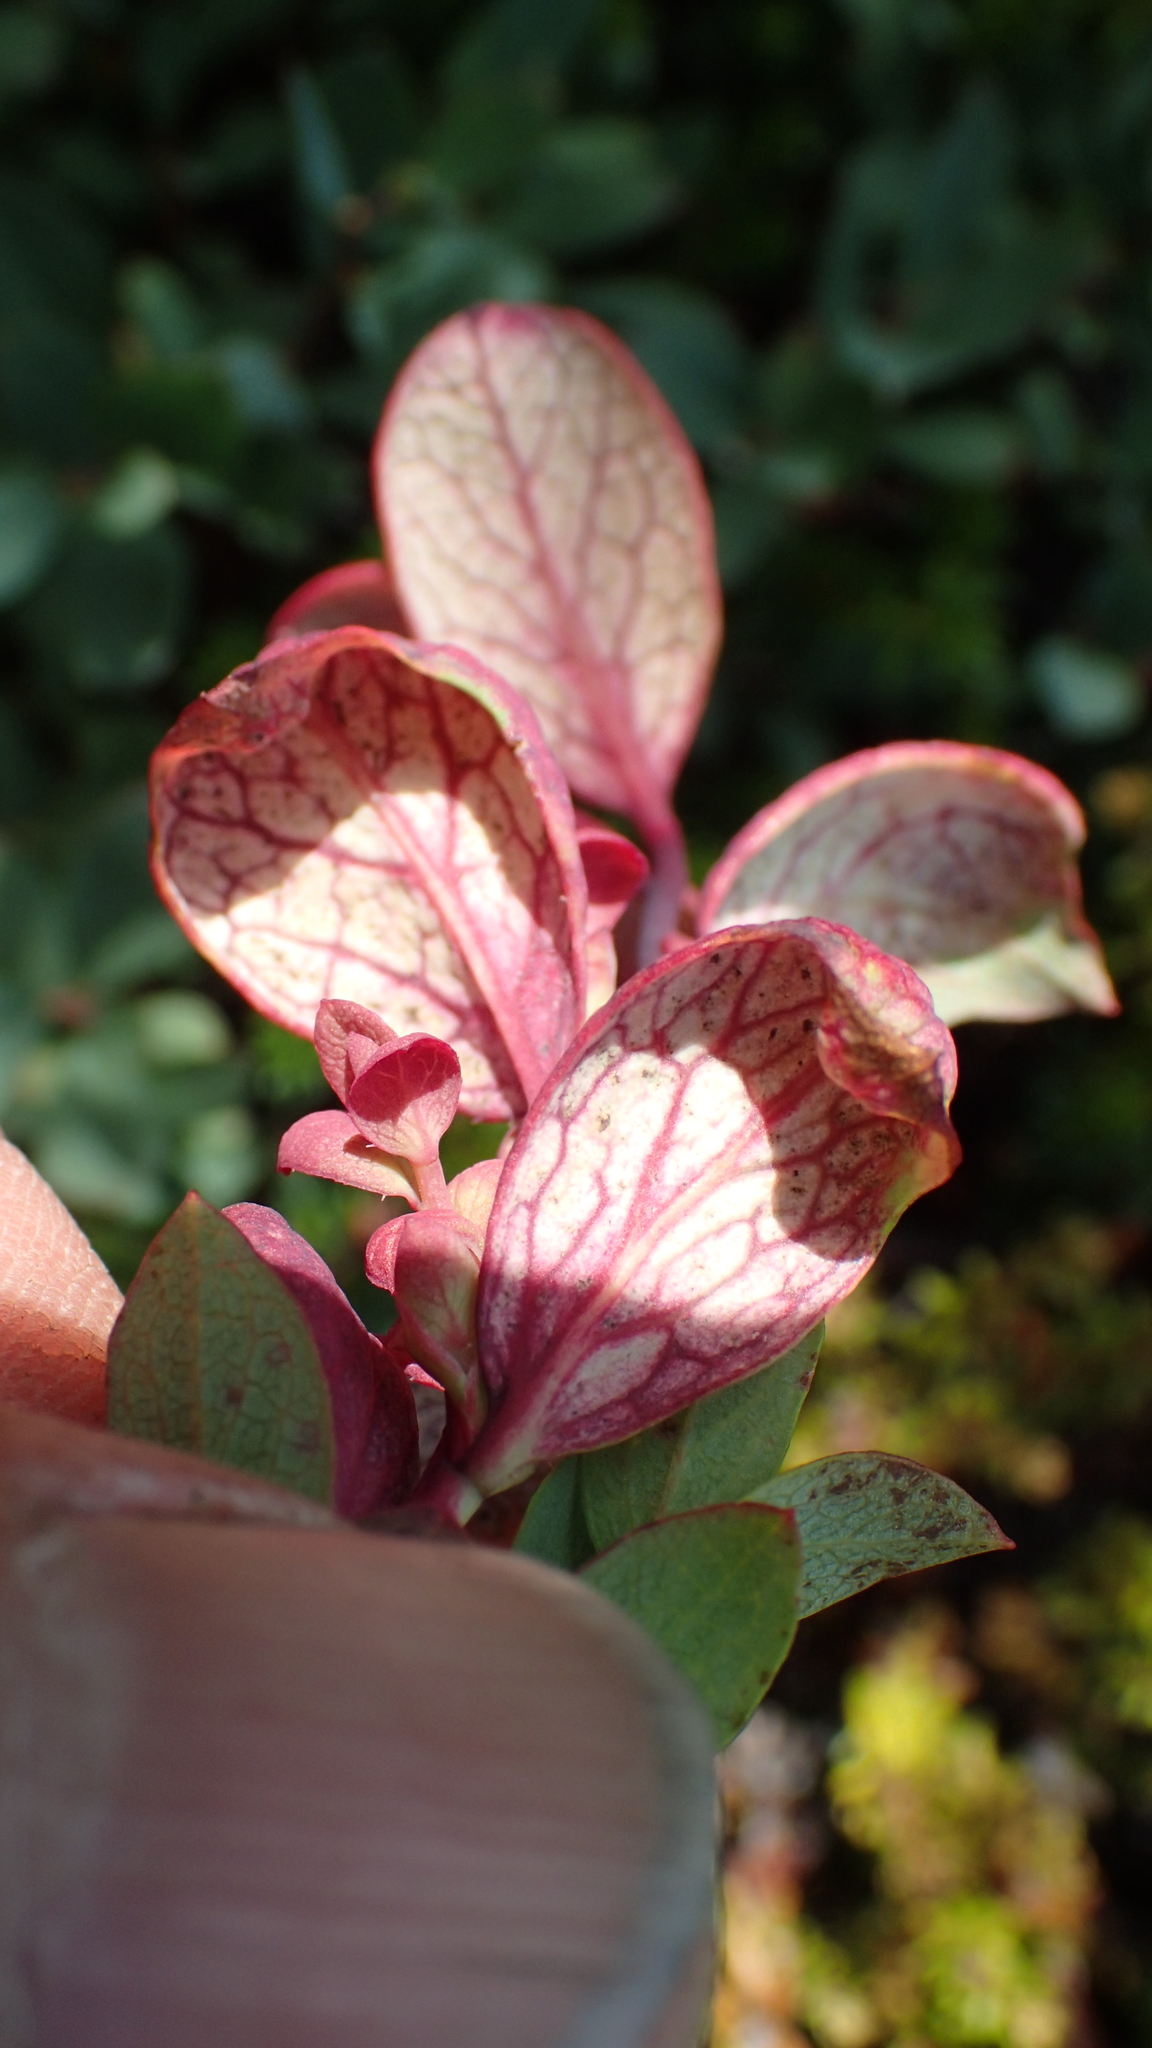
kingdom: Fungi
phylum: Basidiomycota
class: Exobasidiomycetes
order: Exobasidiales
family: Exobasidiaceae
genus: Exobasidium
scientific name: Exobasidium vaccinii-uliginosi
